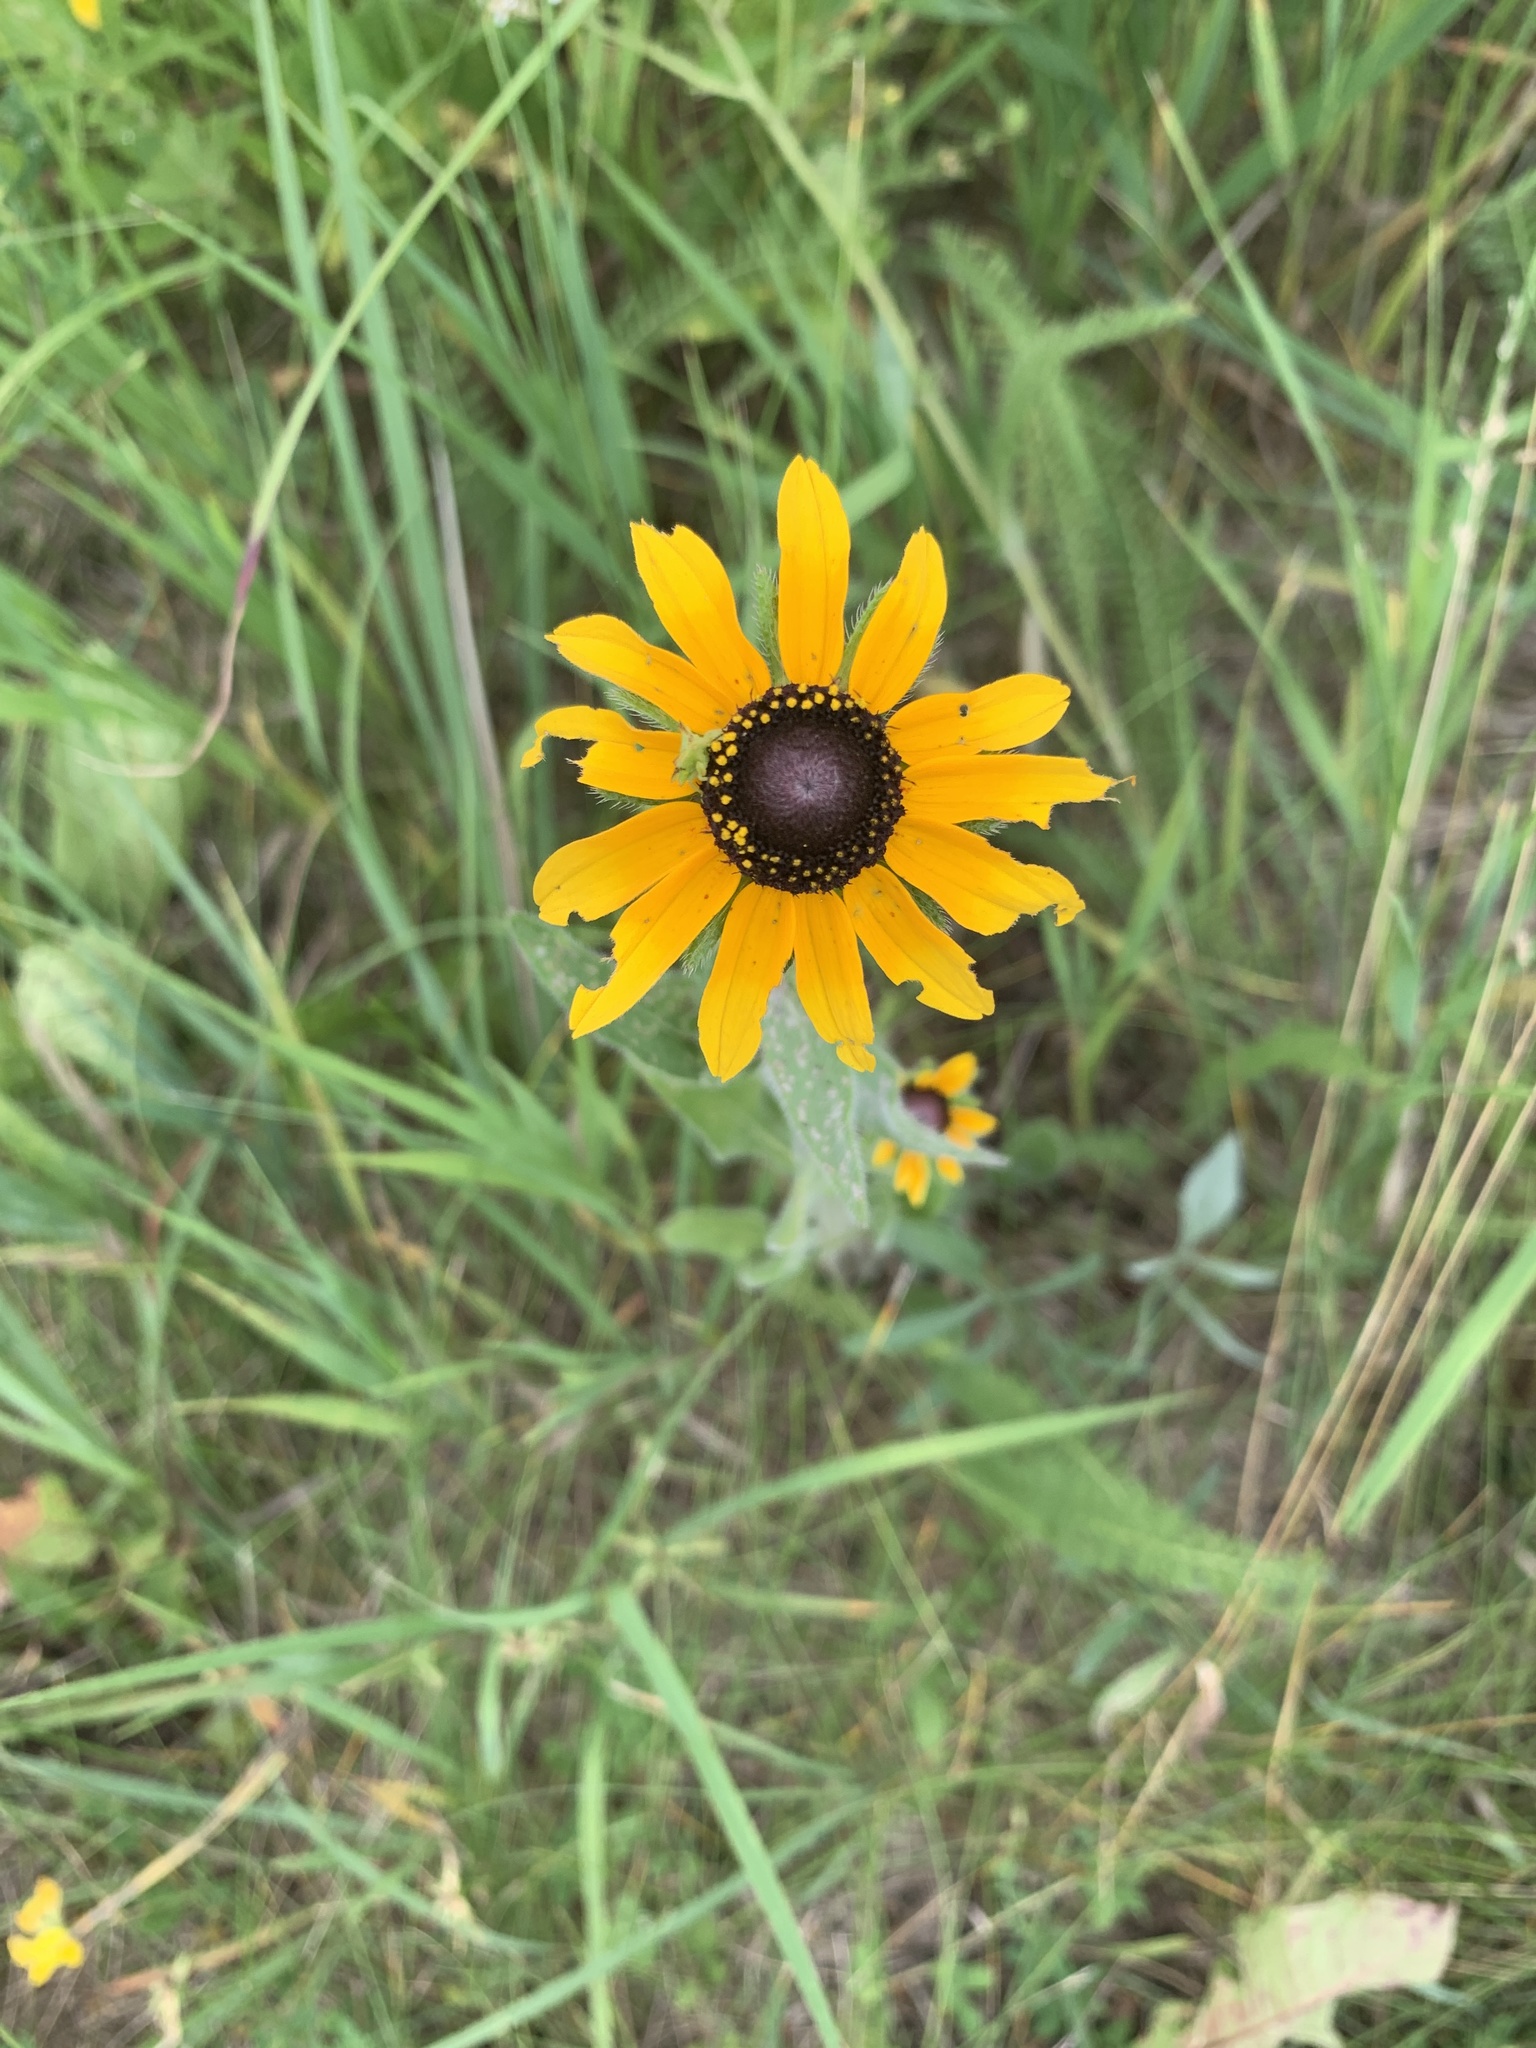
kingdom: Plantae
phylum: Tracheophyta
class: Magnoliopsida
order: Asterales
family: Asteraceae
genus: Rudbeckia
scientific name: Rudbeckia hirta
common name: Black-eyed-susan
